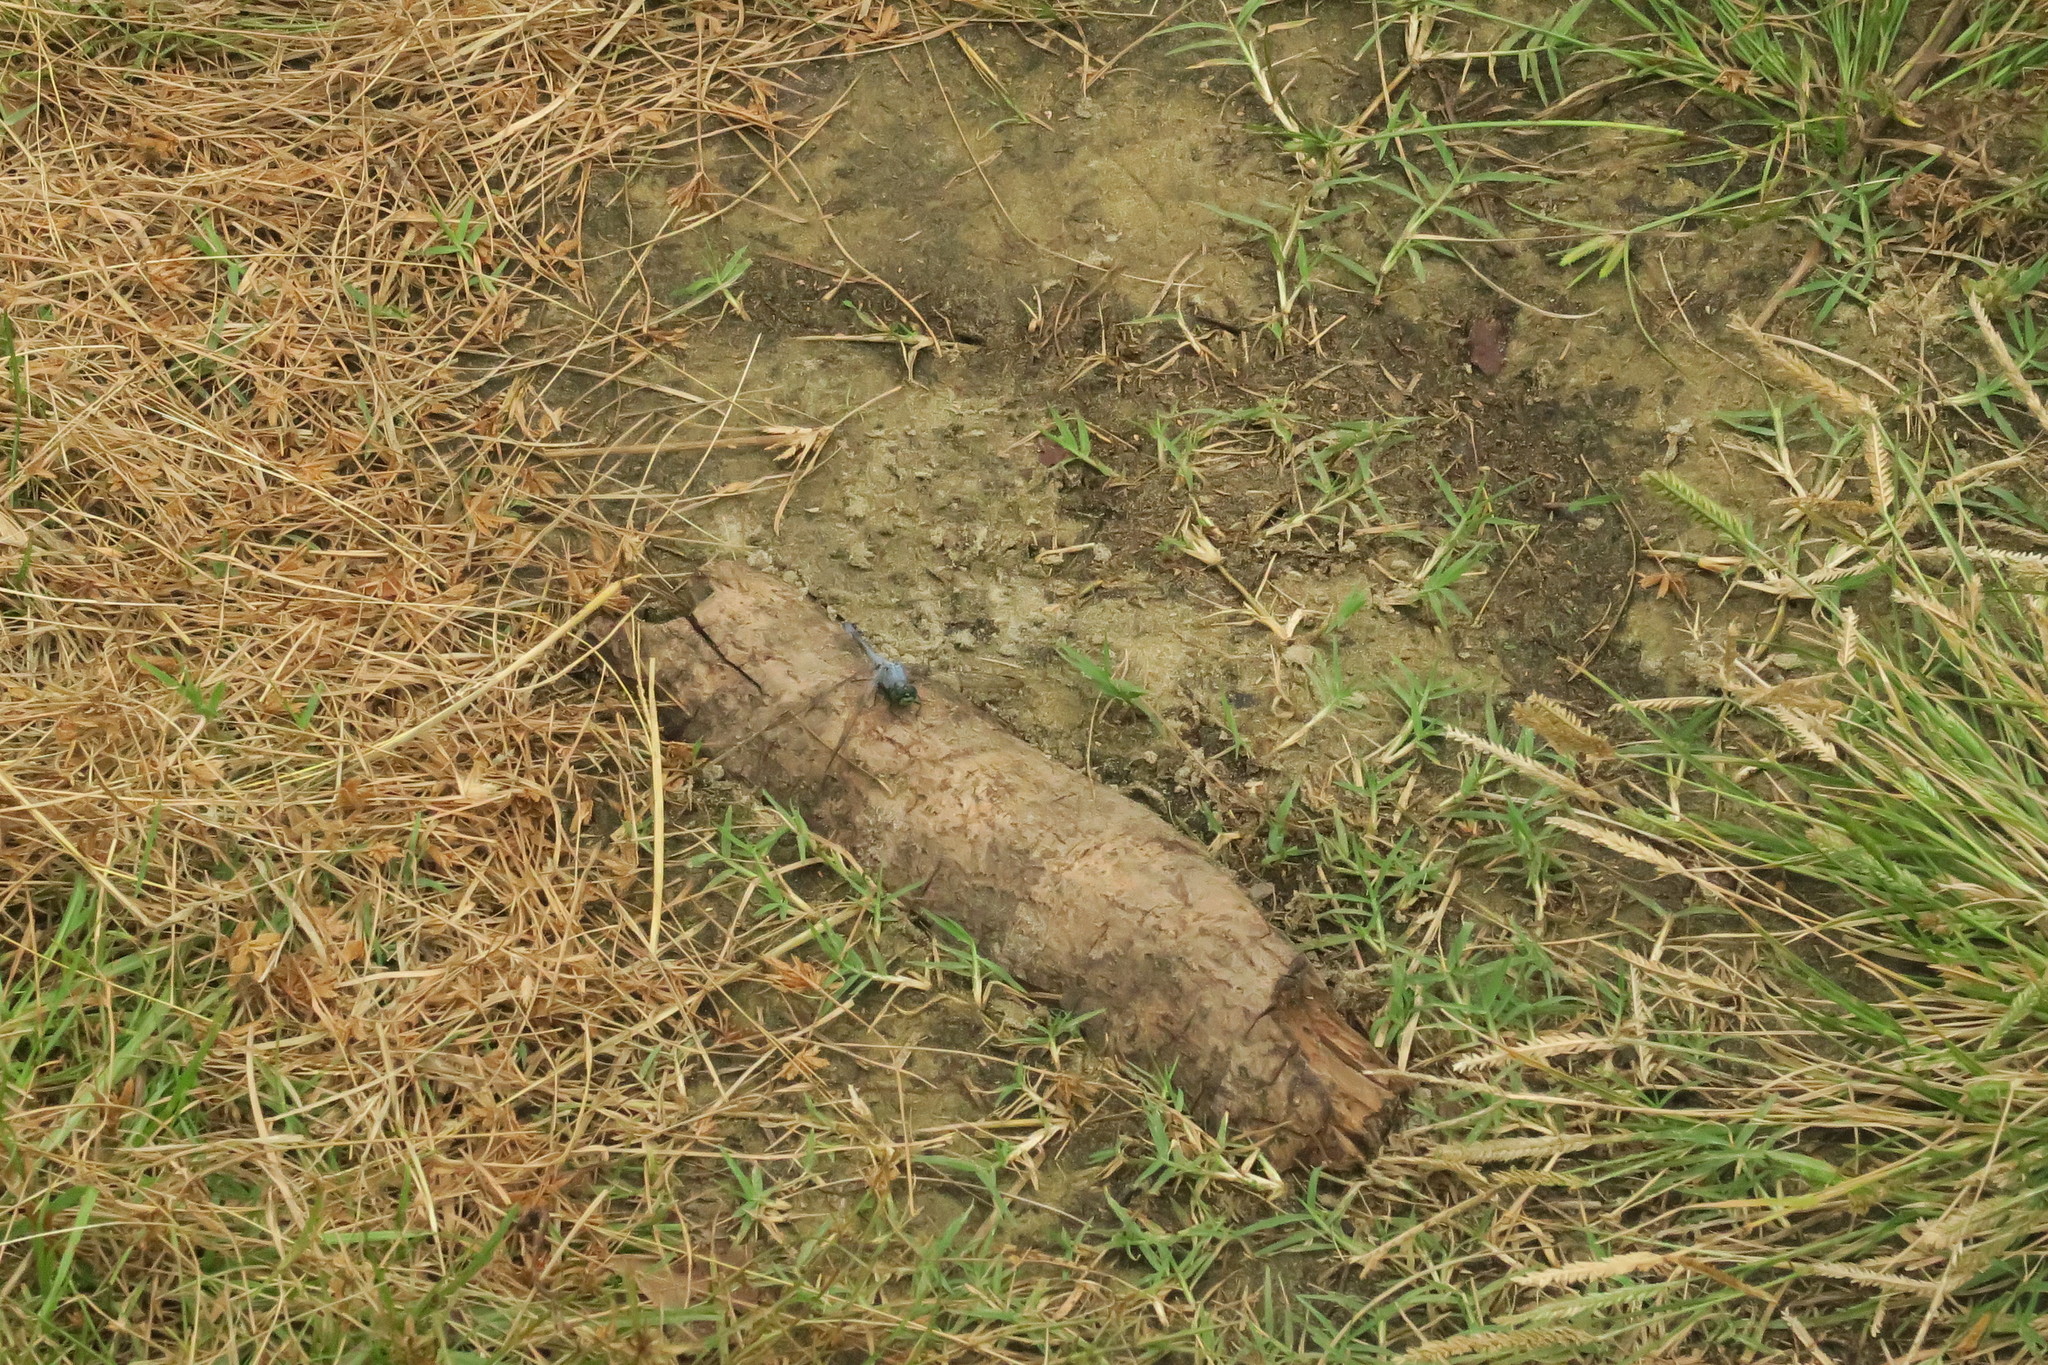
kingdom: Animalia
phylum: Arthropoda
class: Insecta
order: Odonata
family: Libellulidae
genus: Erythemis
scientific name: Erythemis simplicicollis
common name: Eastern pondhawk
